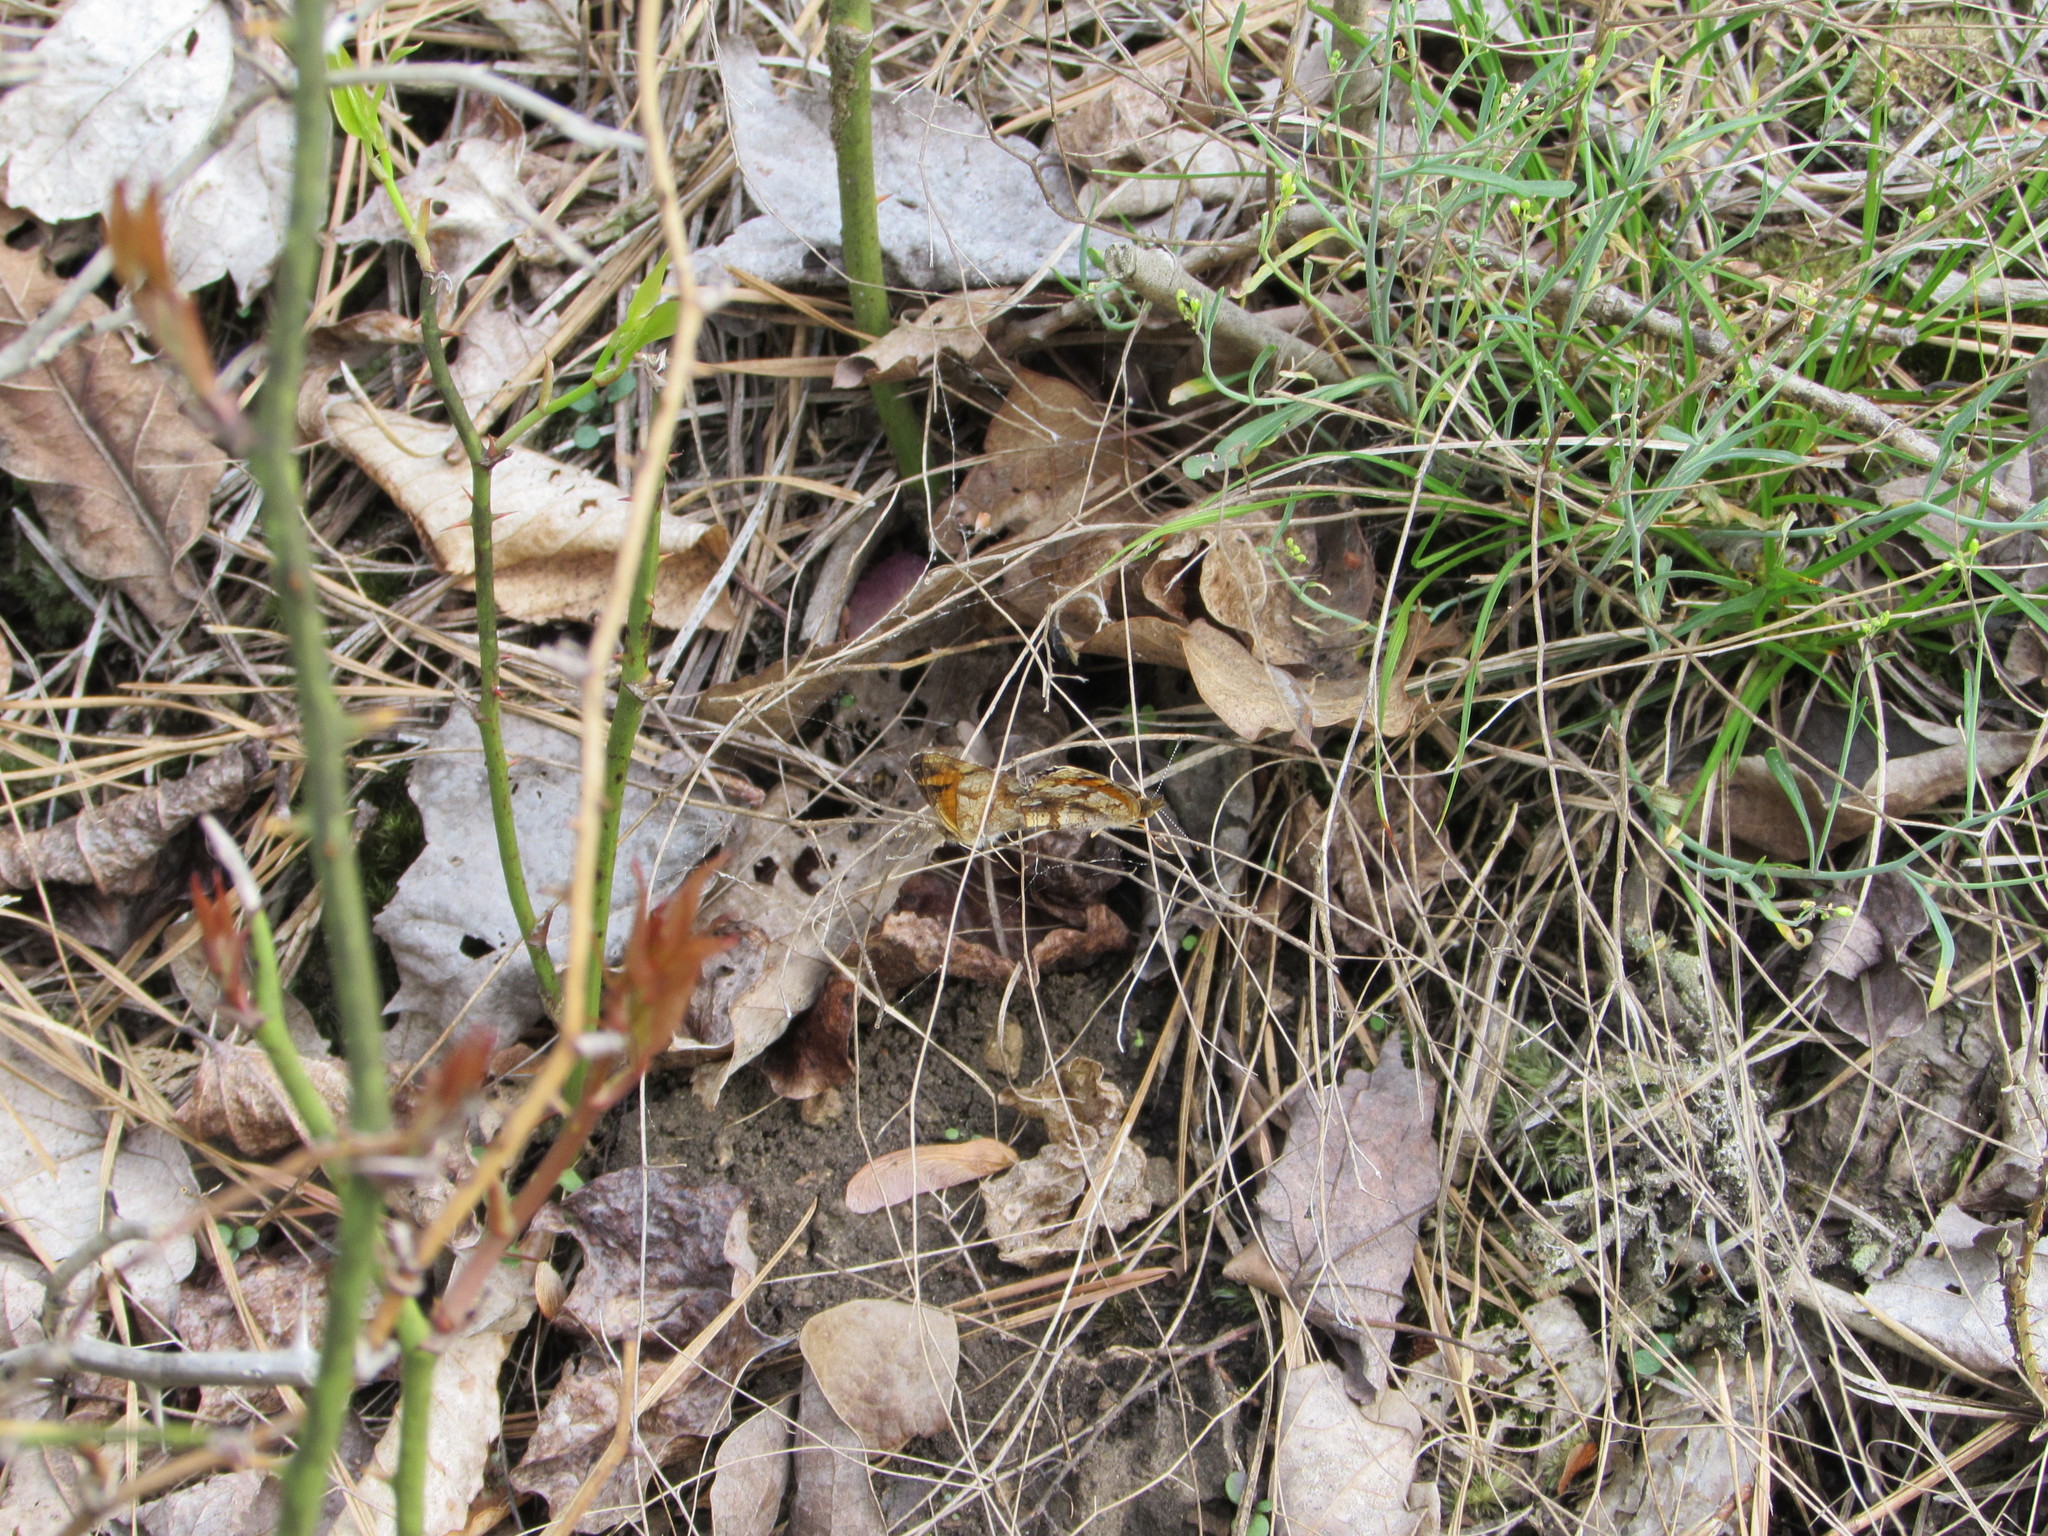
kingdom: Animalia
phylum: Arthropoda
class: Insecta
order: Lepidoptera
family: Nymphalidae
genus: Phyciodes
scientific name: Phyciodes tharos
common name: Pearl crescent
